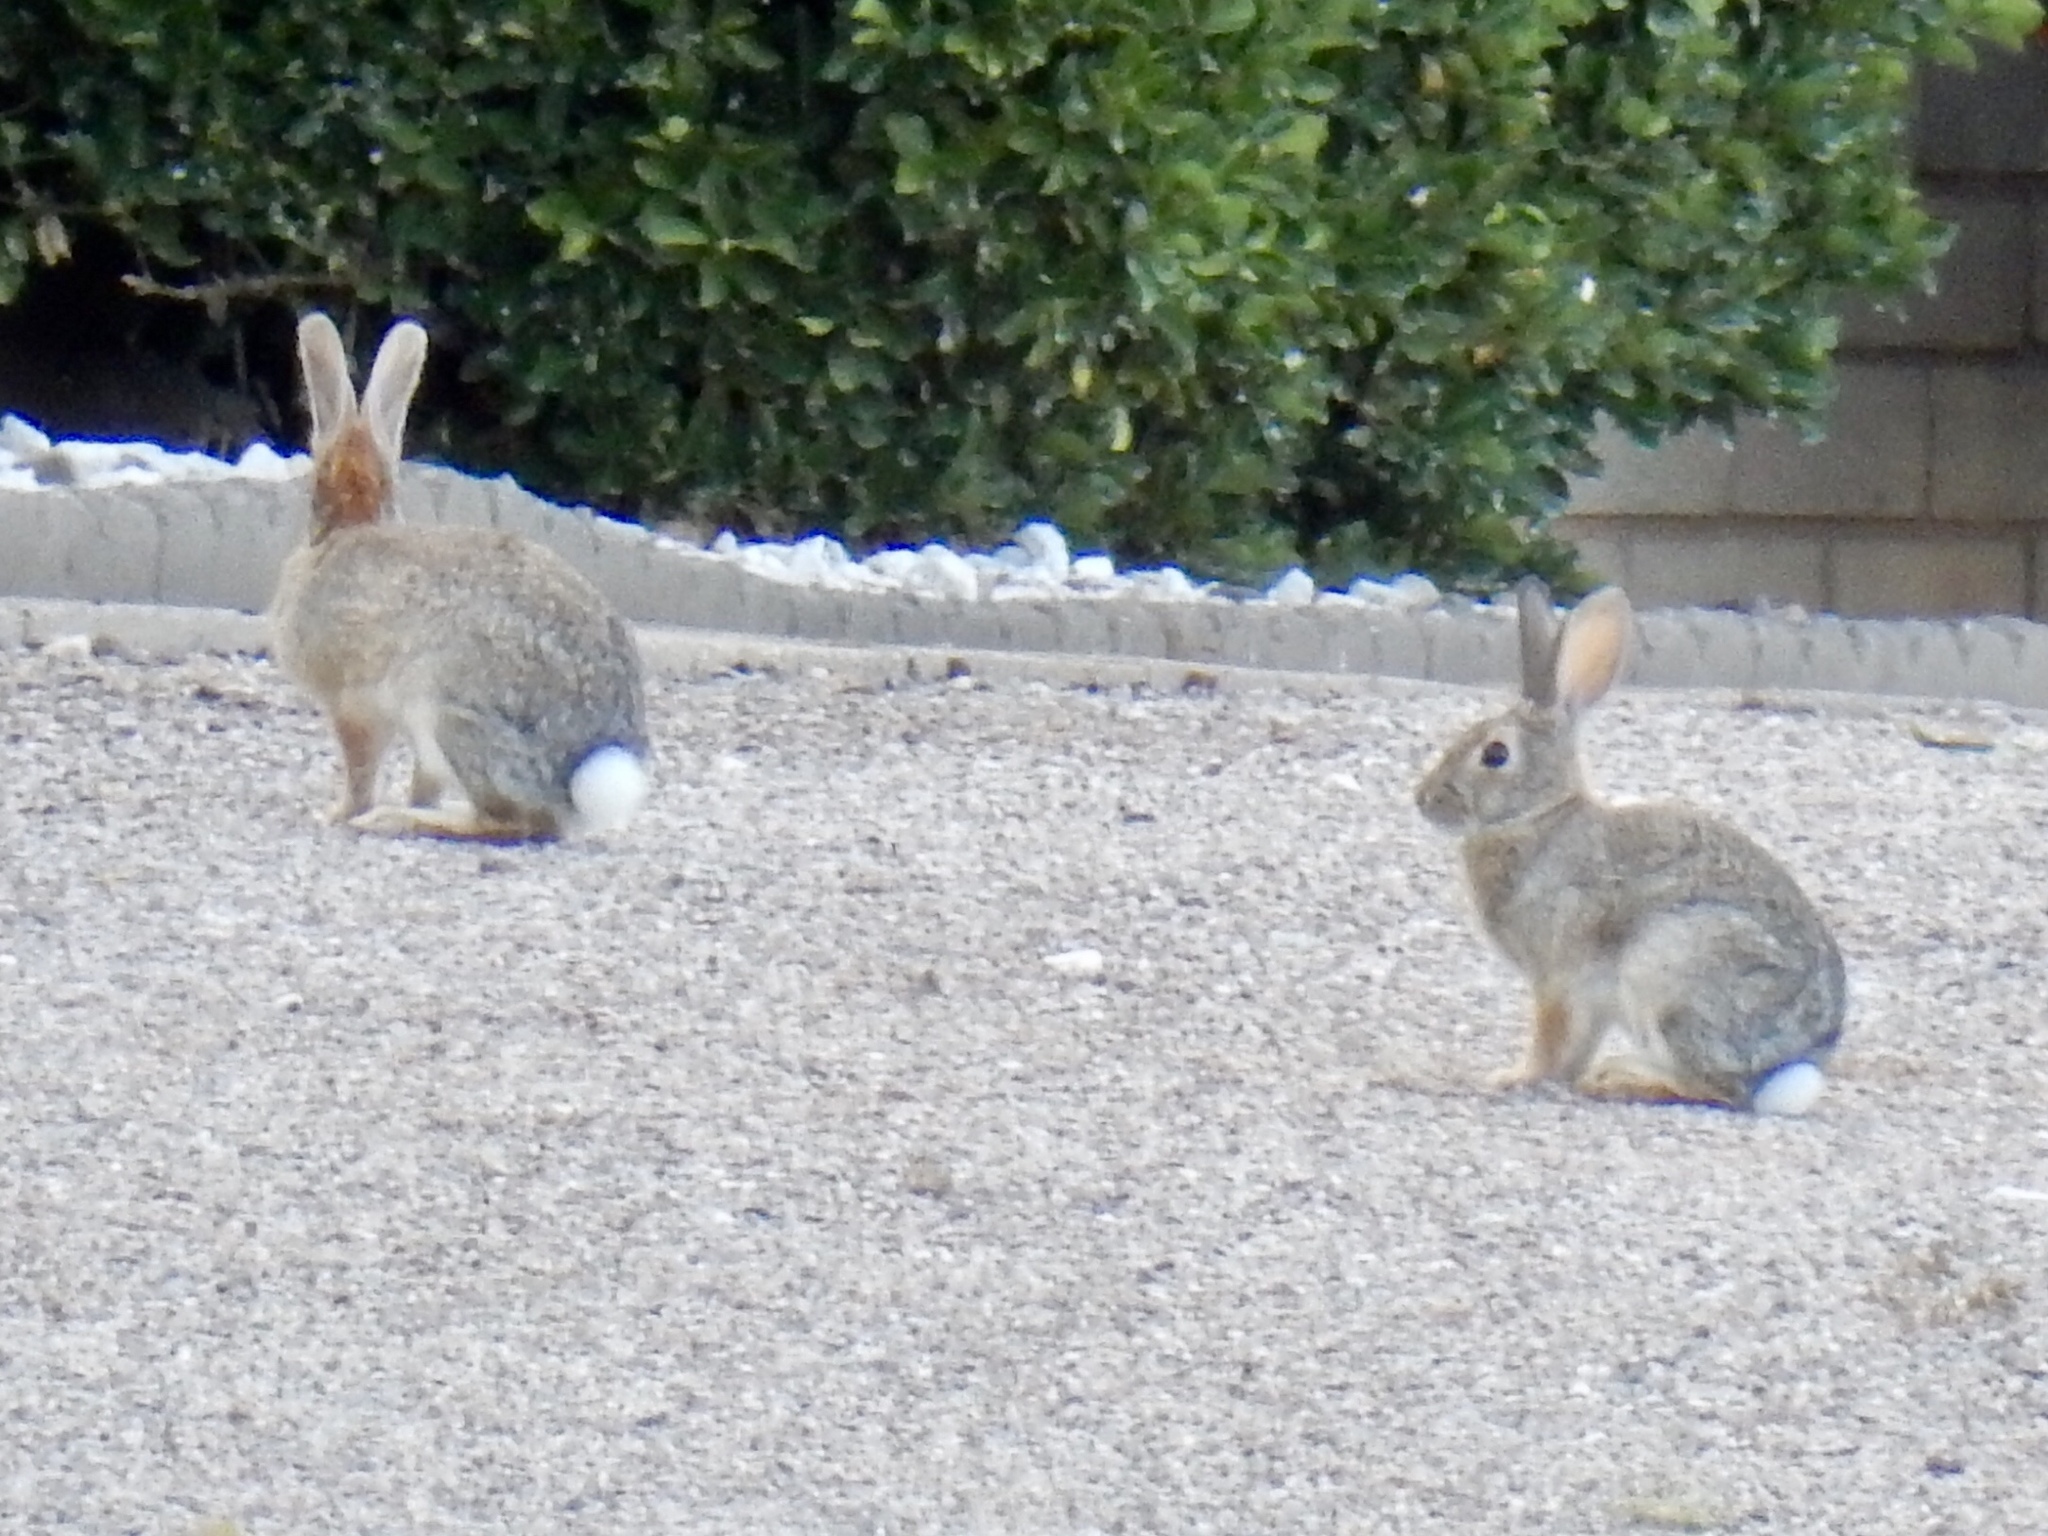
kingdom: Animalia
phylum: Chordata
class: Mammalia
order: Lagomorpha
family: Leporidae
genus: Sylvilagus
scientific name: Sylvilagus audubonii
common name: Desert cottontail
